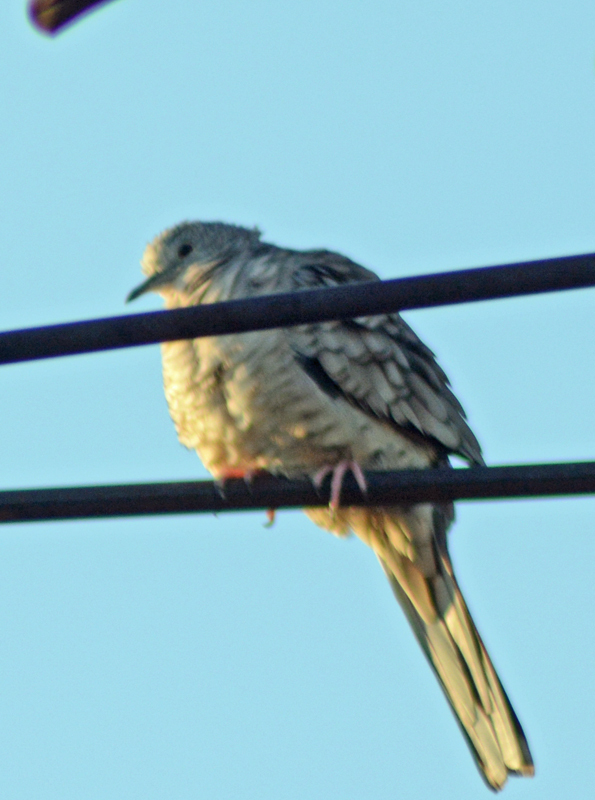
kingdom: Animalia
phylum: Chordata
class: Aves
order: Columbiformes
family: Columbidae
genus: Columbina
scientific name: Columbina inca
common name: Inca dove
